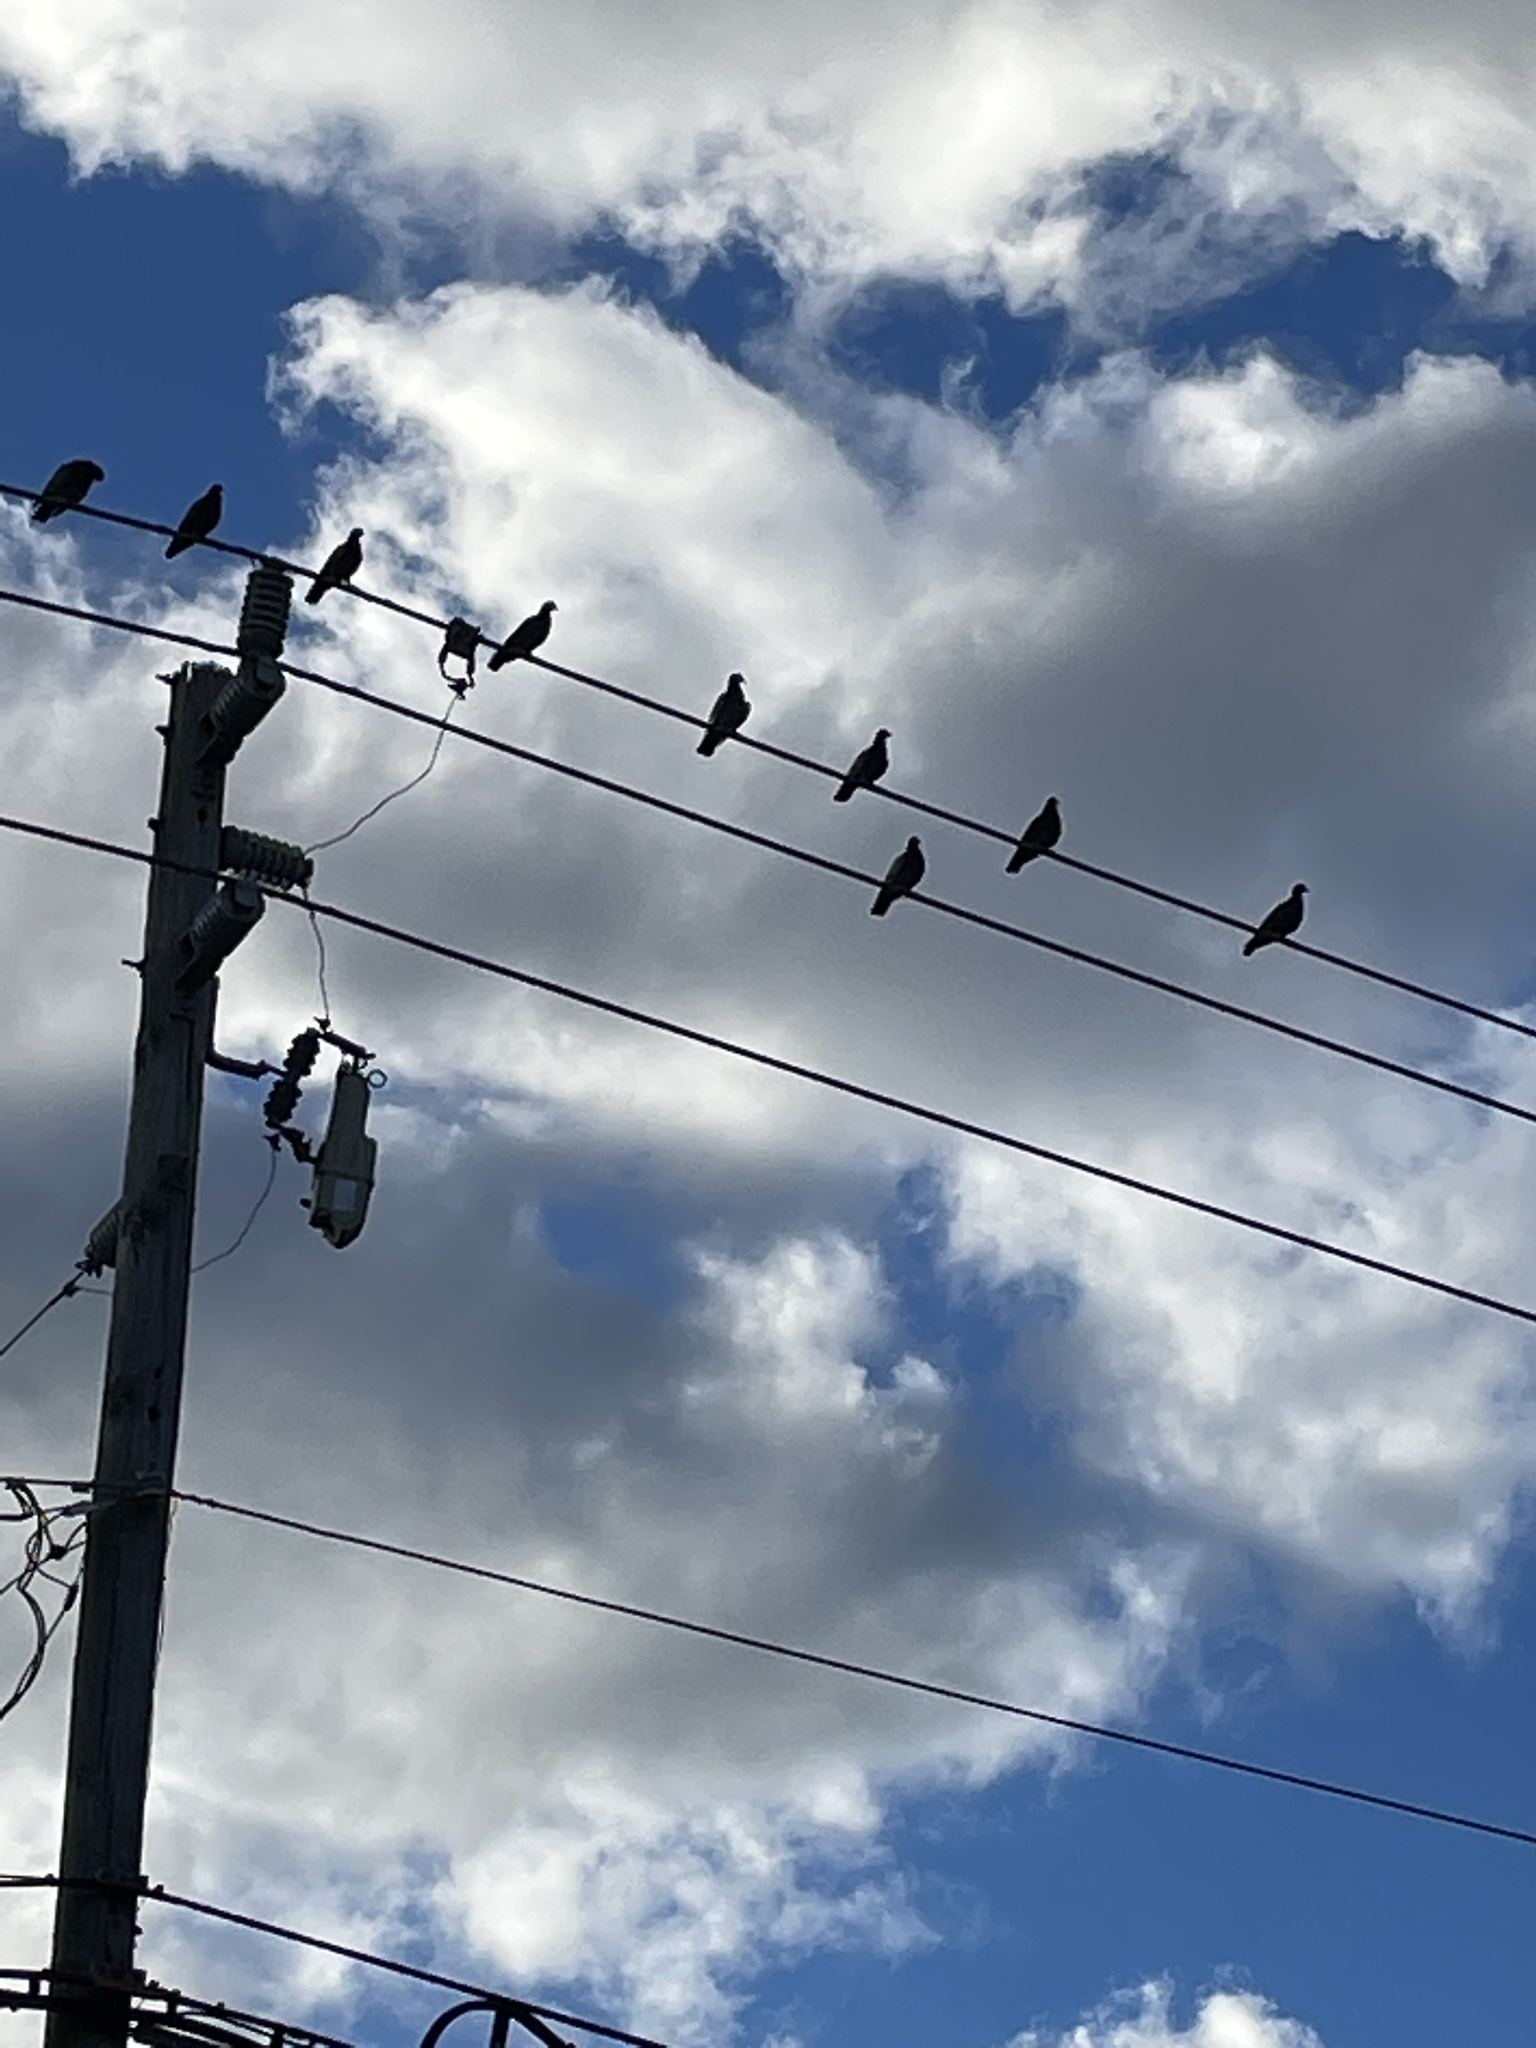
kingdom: Animalia
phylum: Chordata
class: Aves
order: Columbiformes
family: Columbidae
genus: Columba
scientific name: Columba livia
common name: Rock pigeon
